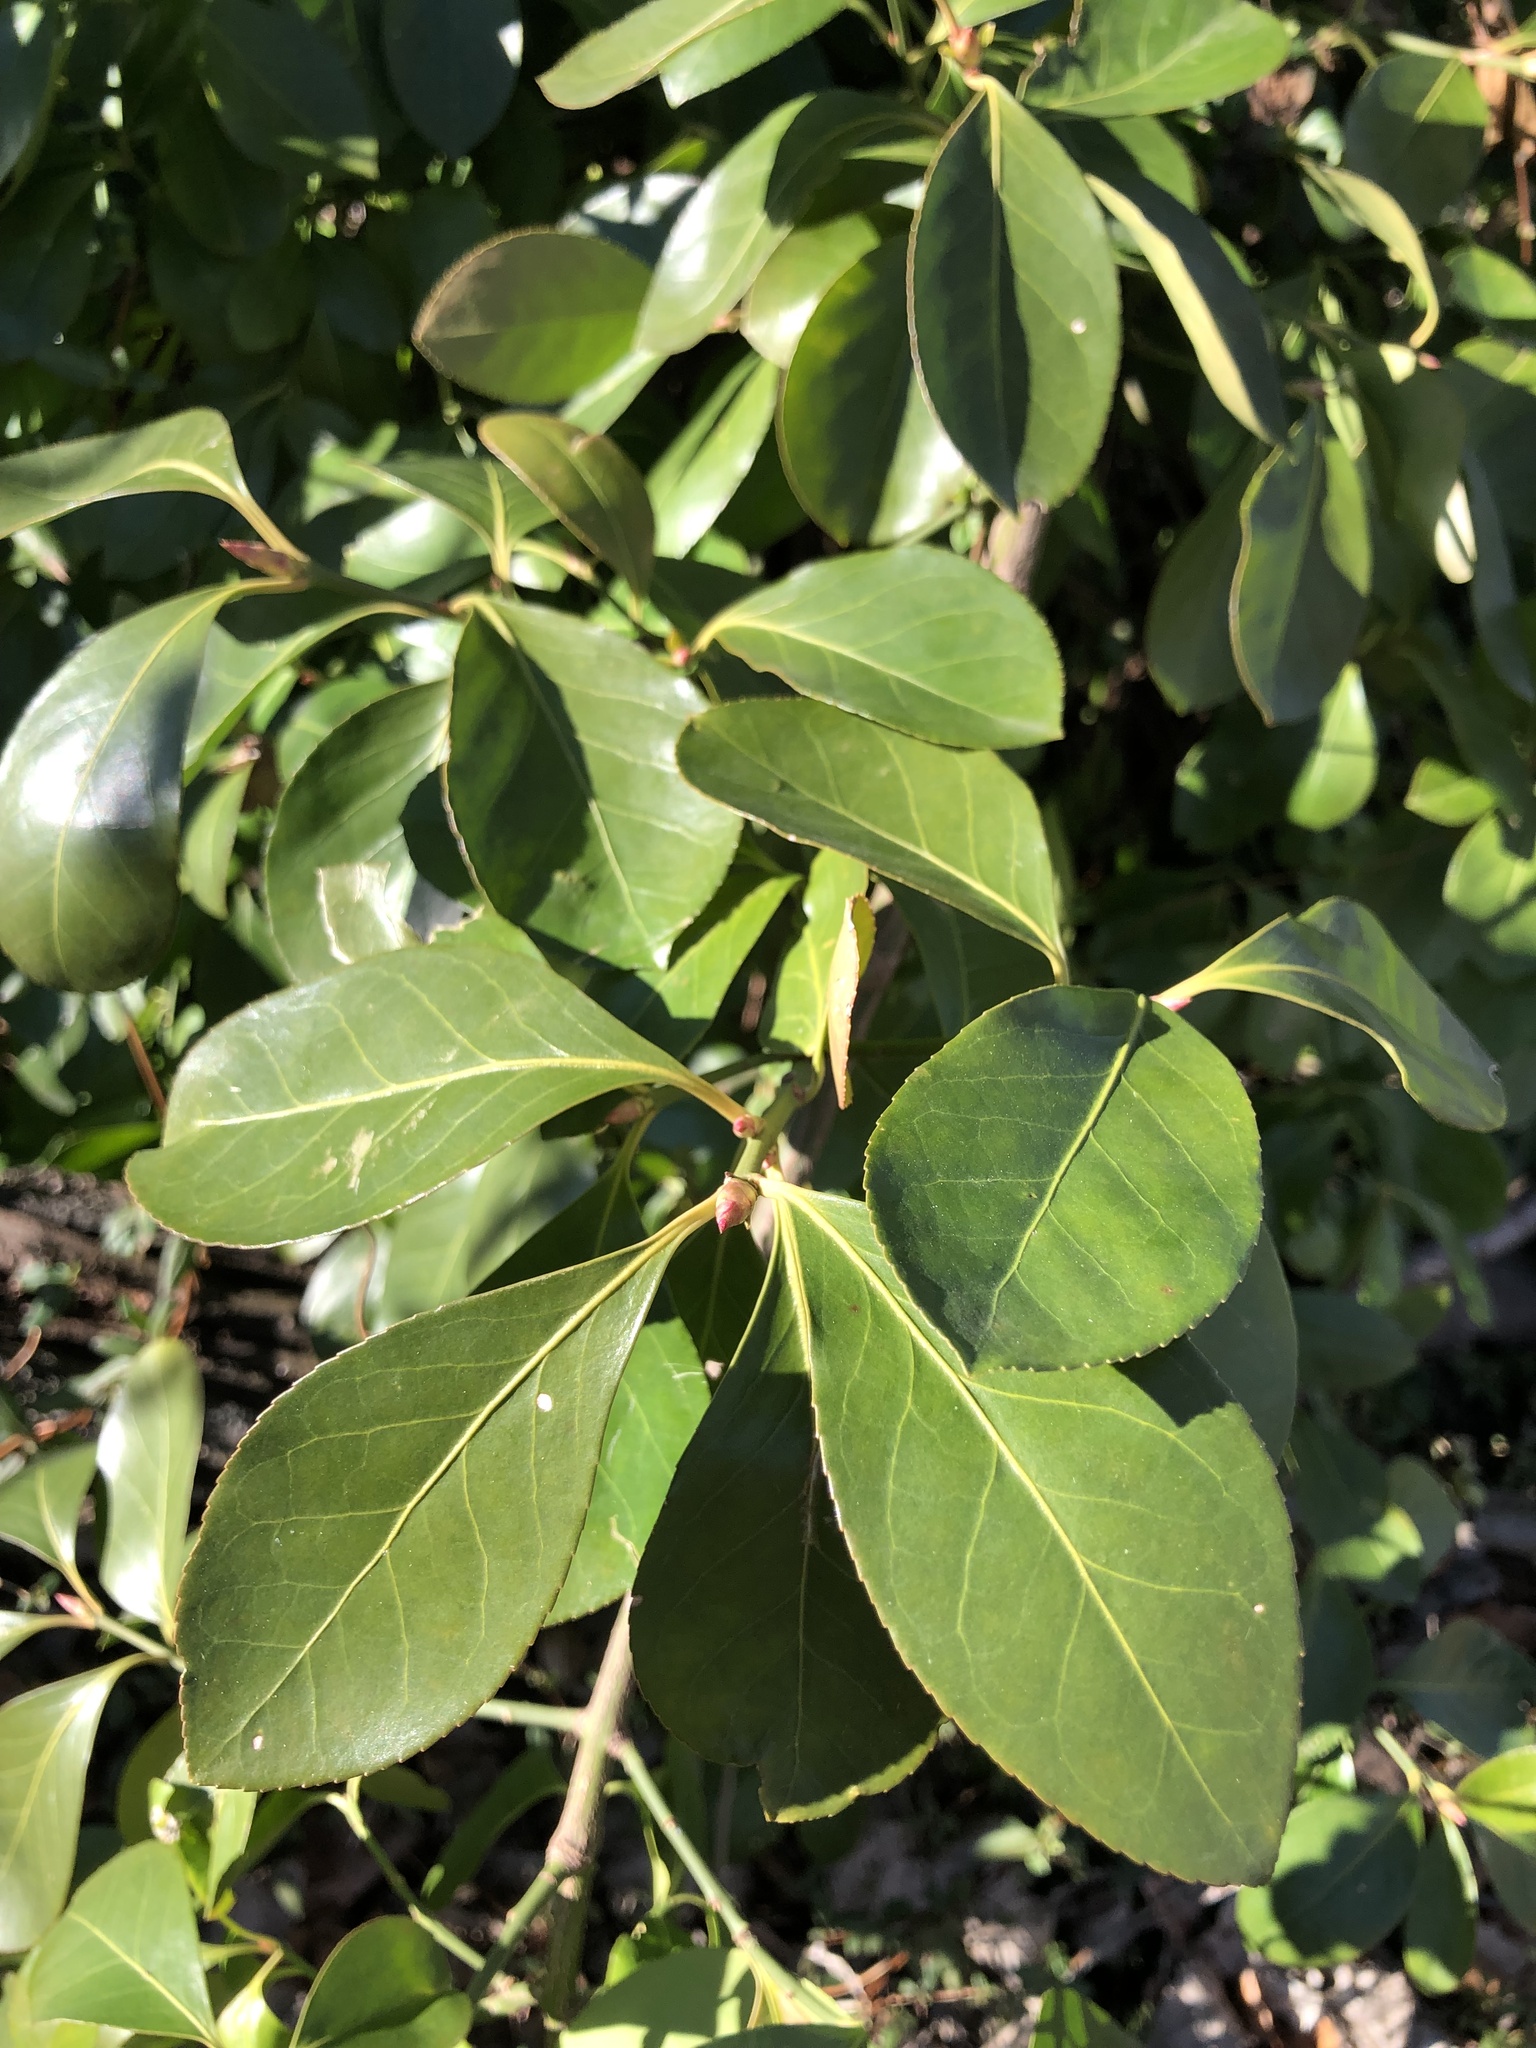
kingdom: Plantae
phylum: Tracheophyta
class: Magnoliopsida
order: Celastrales
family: Celastraceae
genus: Euonymus
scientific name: Euonymus japonicus
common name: Japanese spindletree
